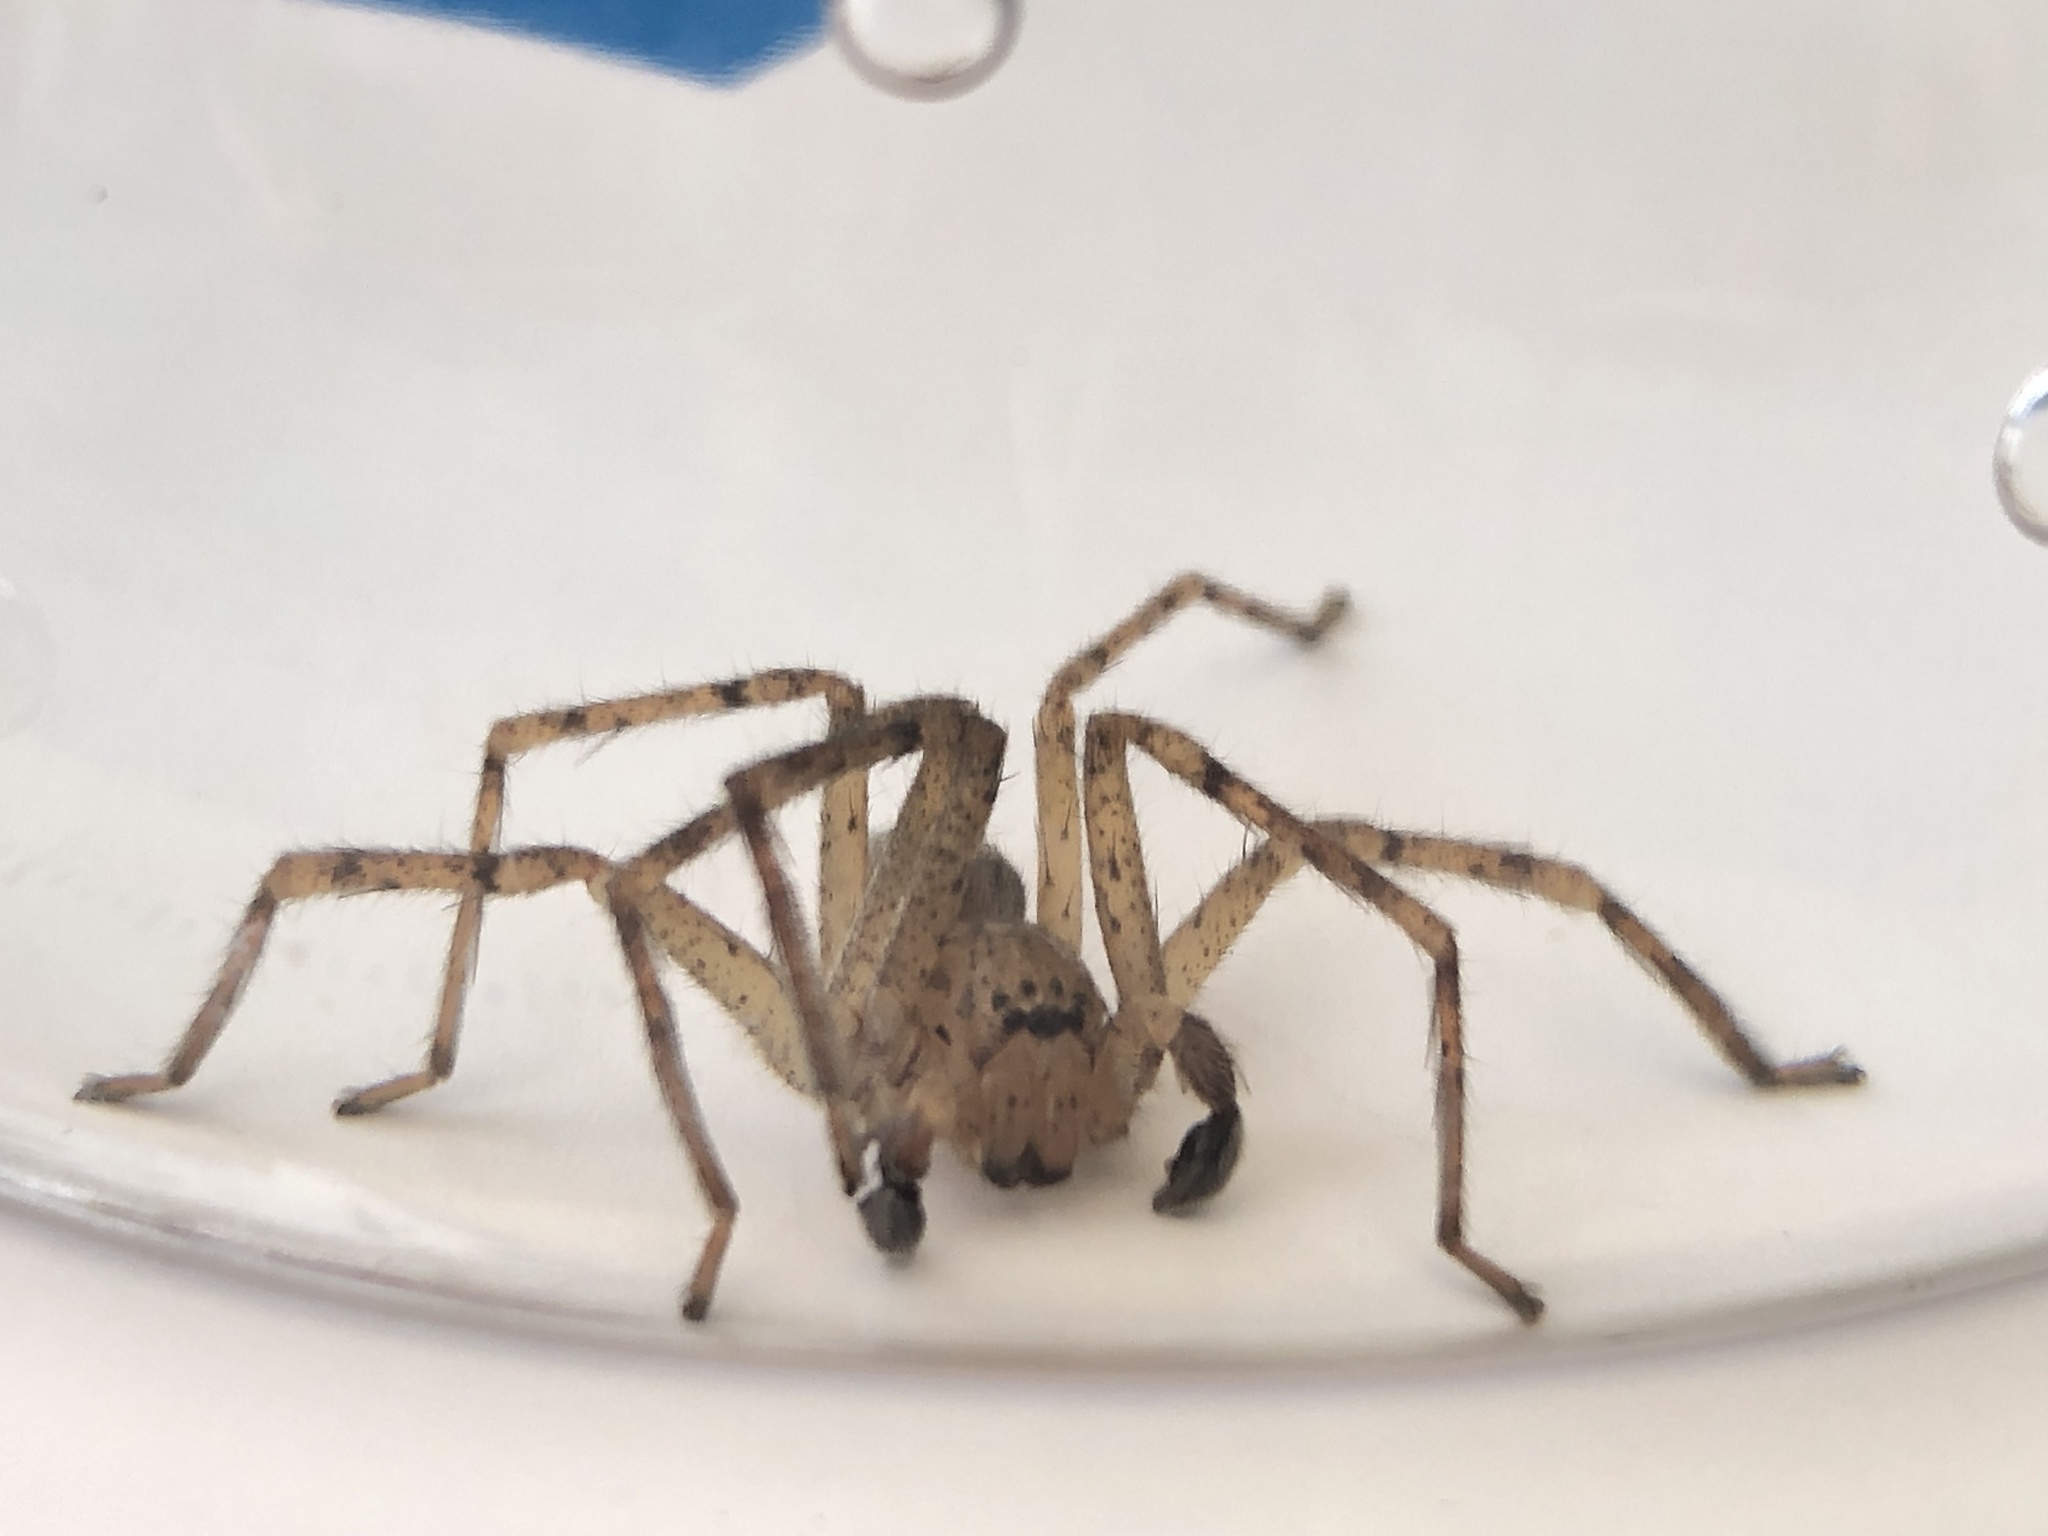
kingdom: Animalia
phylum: Arthropoda
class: Arachnida
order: Araneae
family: Sparassidae
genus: Curicaberis
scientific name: Curicaberis peninsulanus
